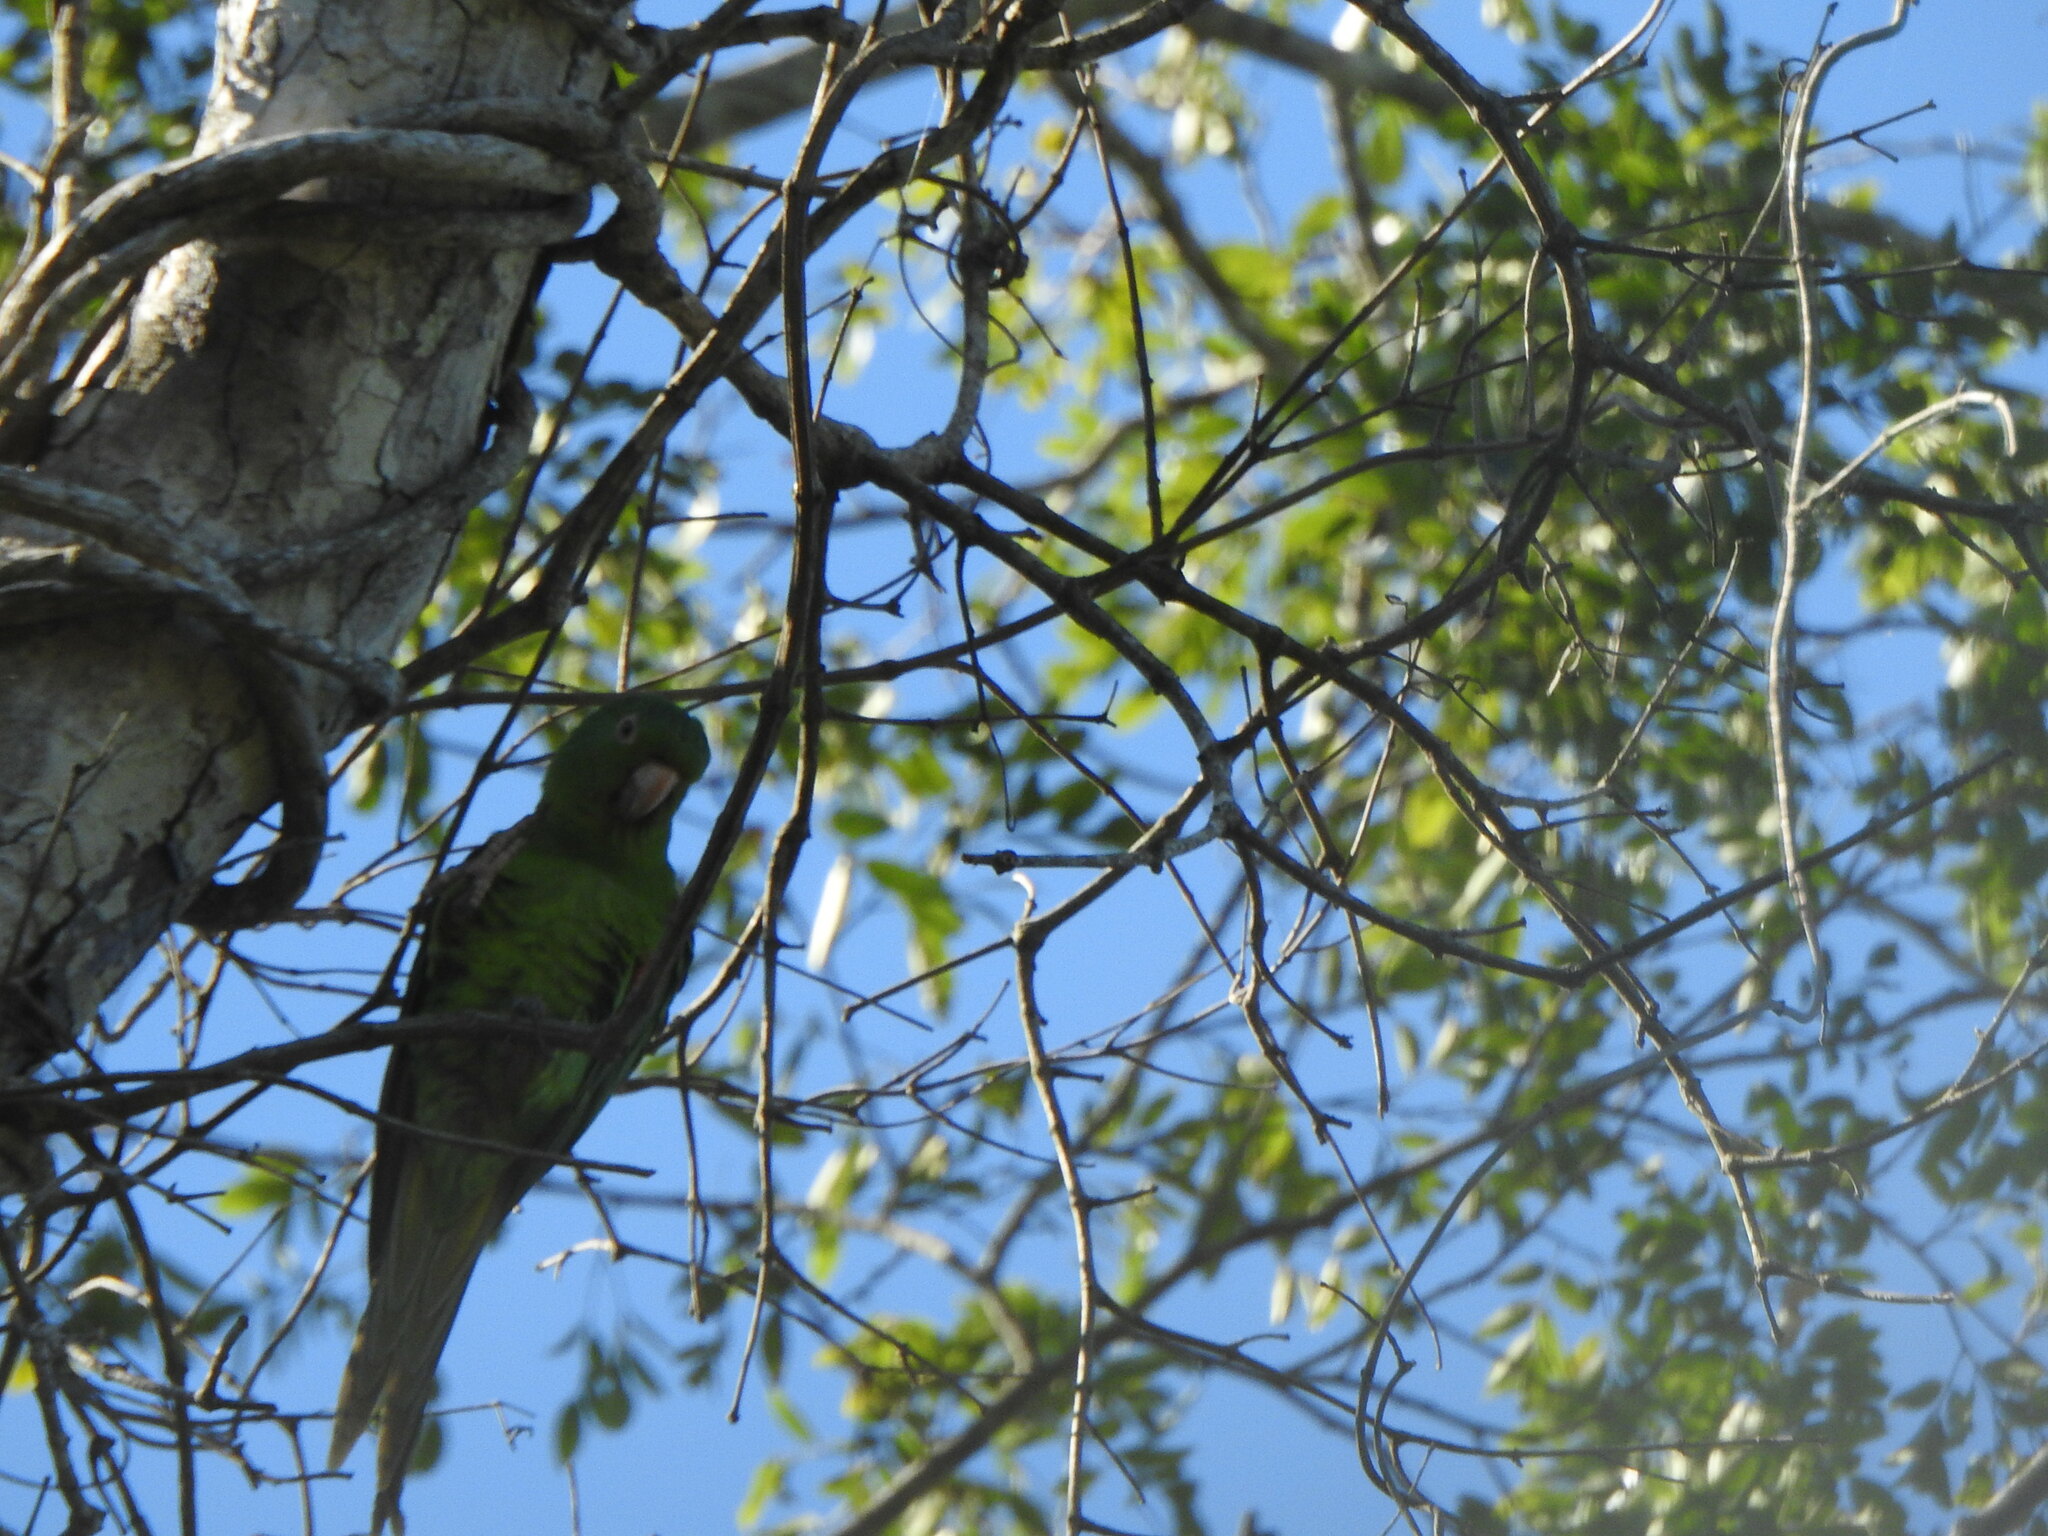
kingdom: Animalia
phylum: Chordata
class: Aves
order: Psittaciformes
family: Psittacidae
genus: Aratinga
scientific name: Aratinga leucophthalma
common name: White-eyed parakeet
